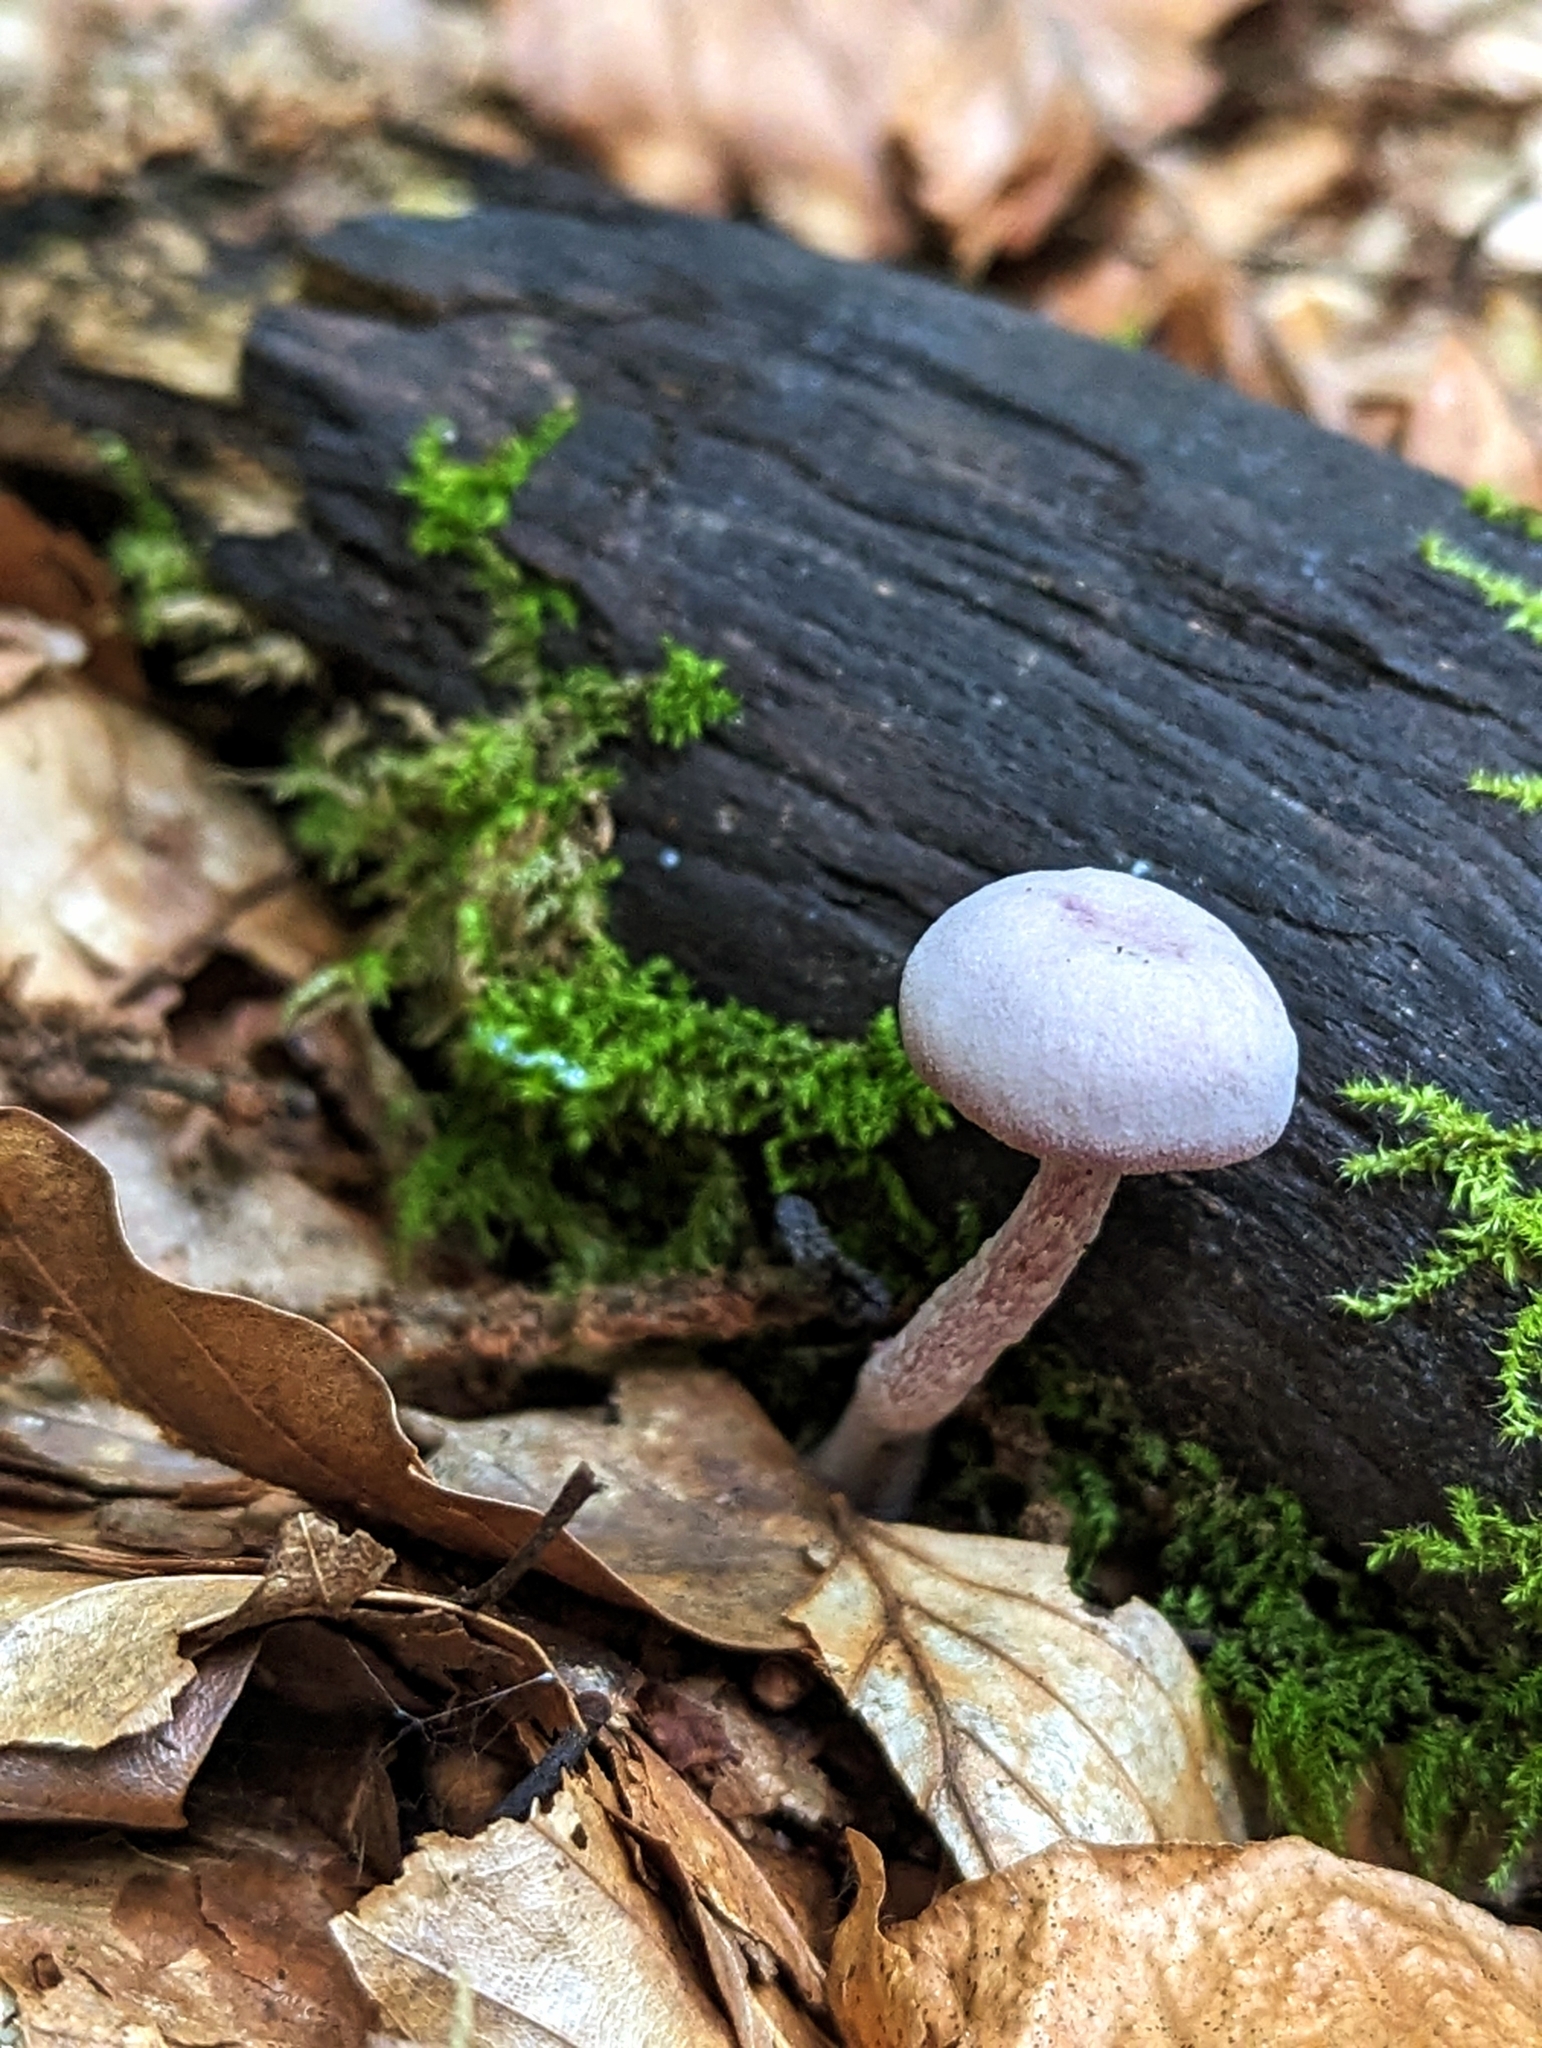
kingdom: Fungi
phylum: Basidiomycota
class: Agaricomycetes
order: Agaricales
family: Hydnangiaceae
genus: Laccaria
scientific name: Laccaria amethystina
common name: Amethyst deceiver
